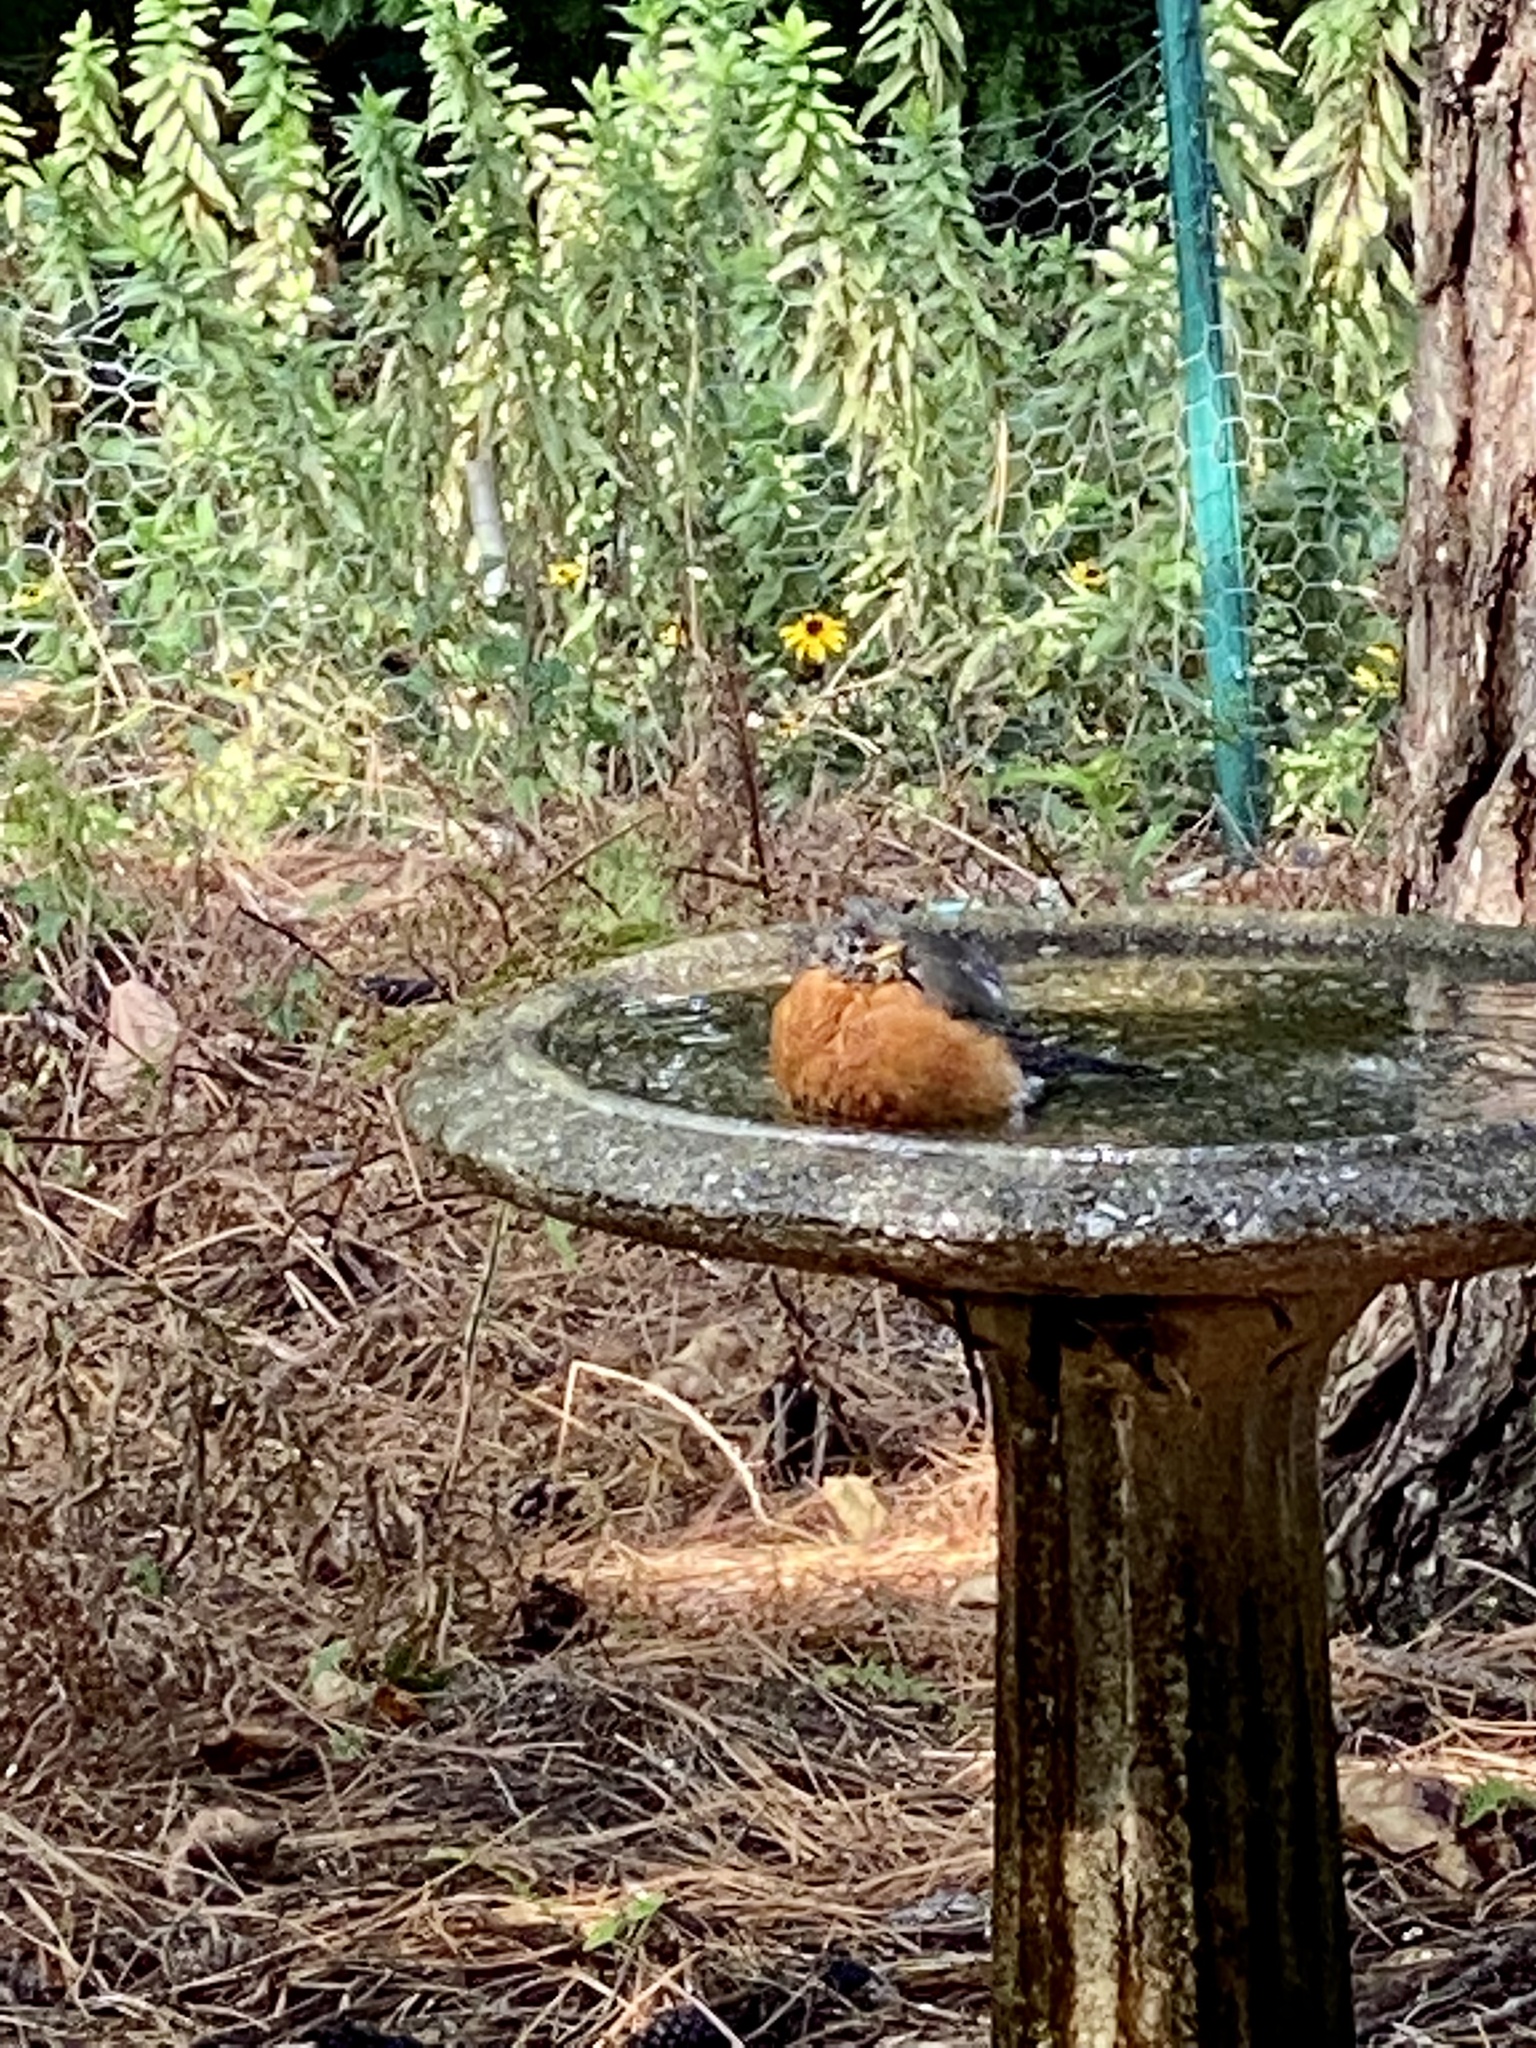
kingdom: Animalia
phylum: Chordata
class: Aves
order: Passeriformes
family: Turdidae
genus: Turdus
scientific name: Turdus migratorius
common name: American robin
